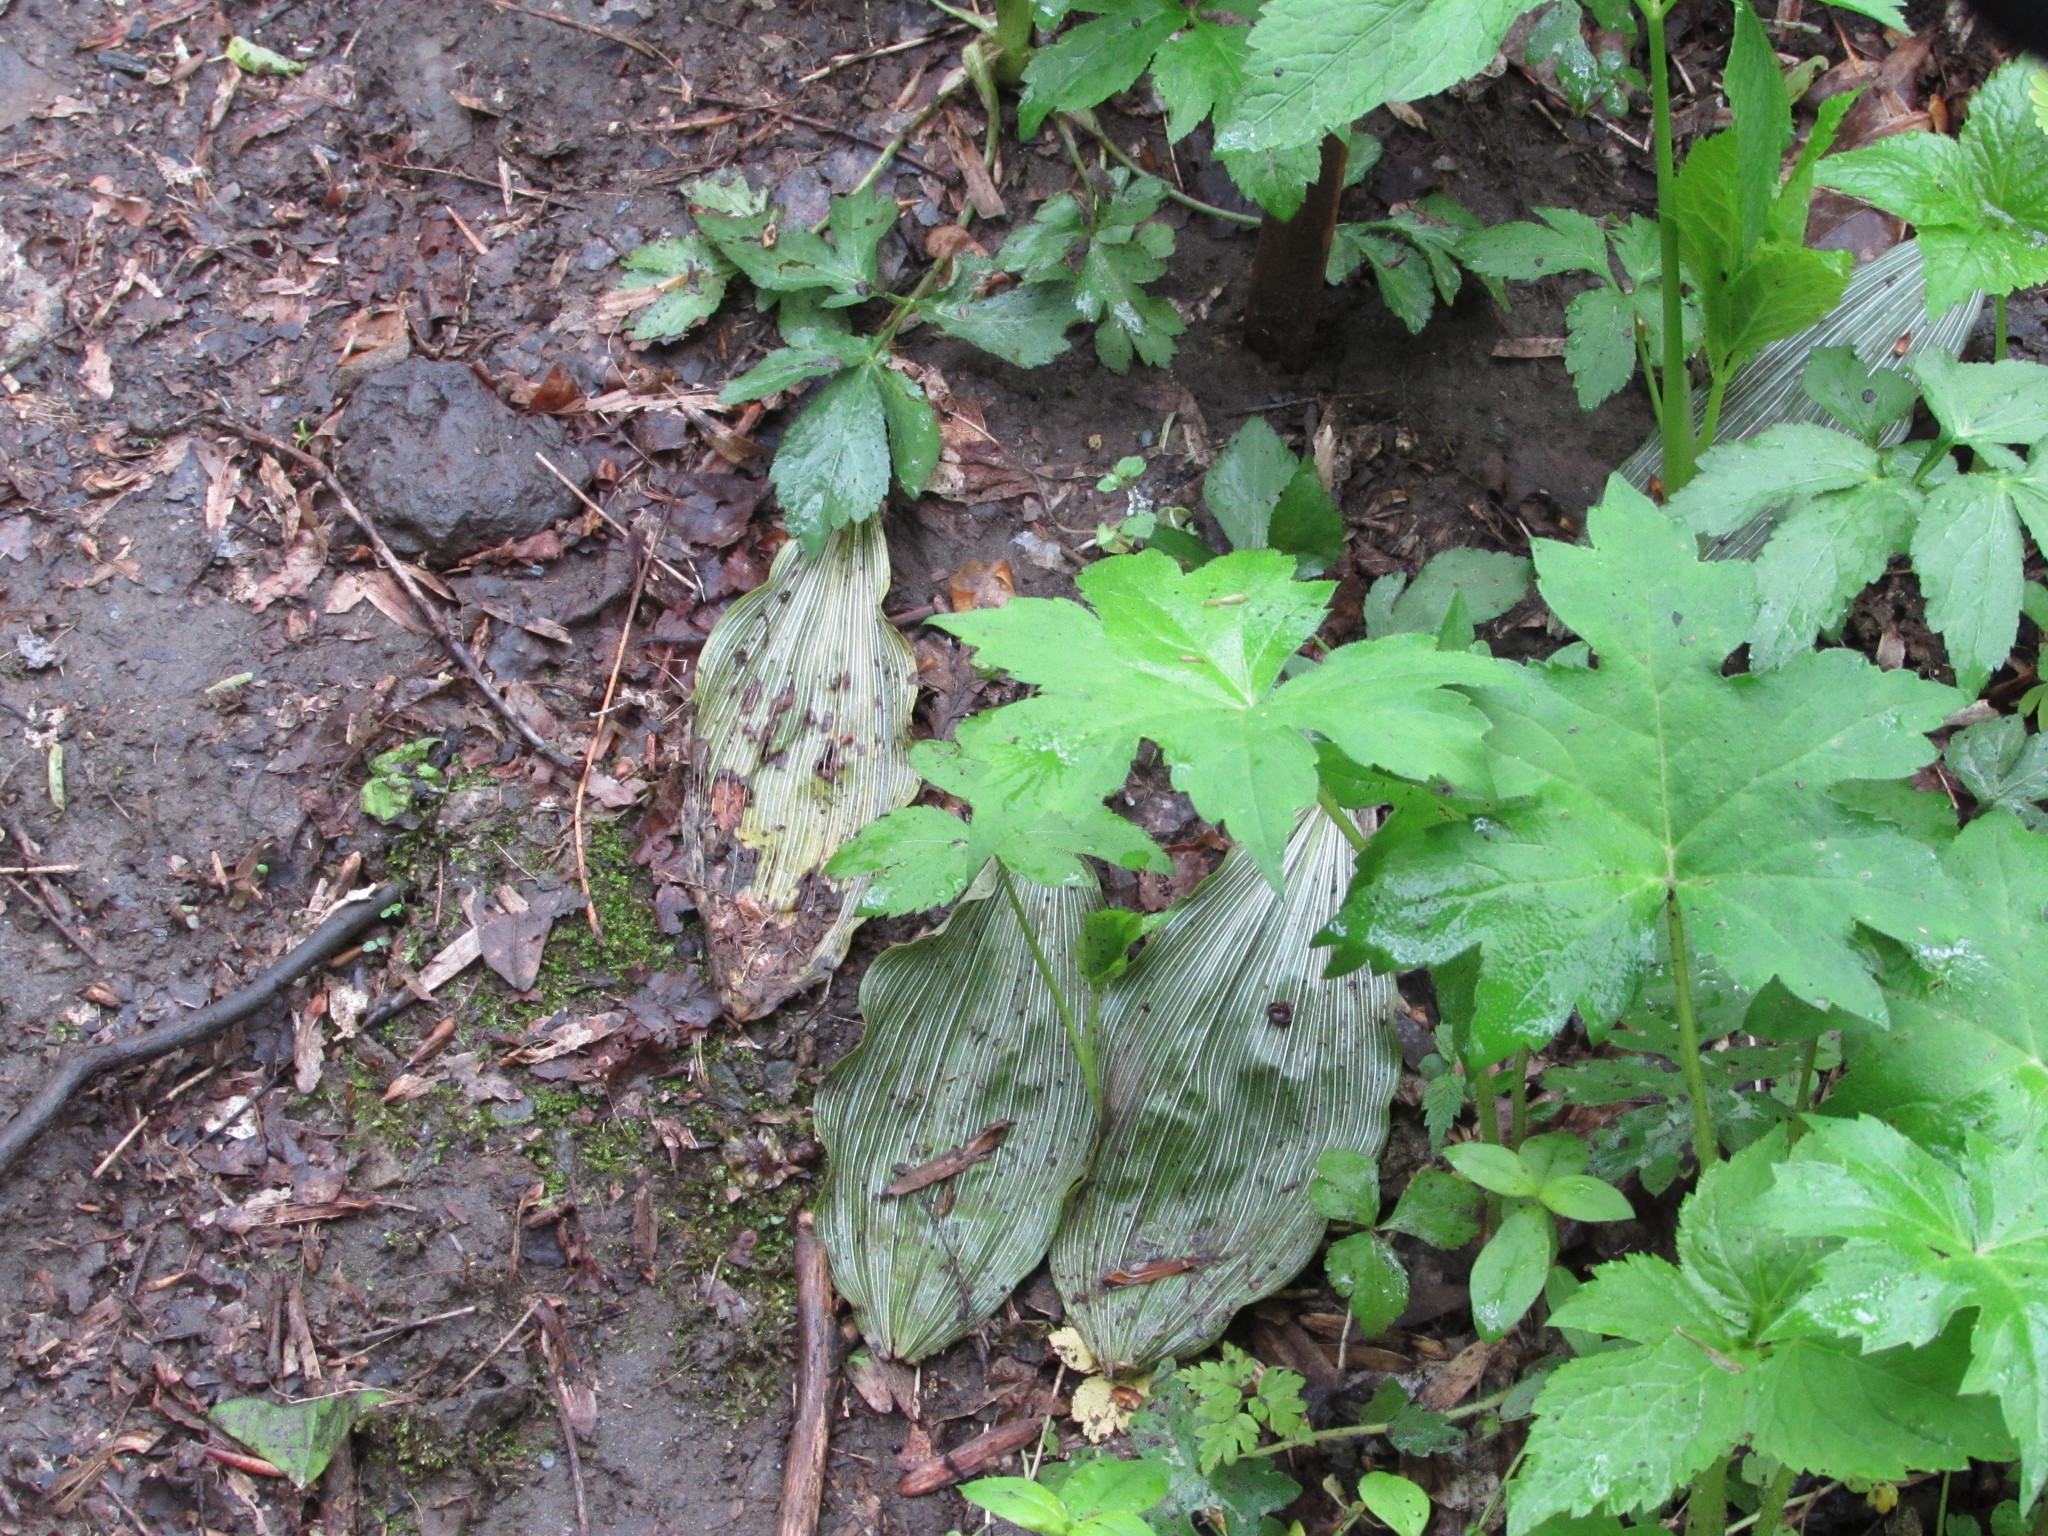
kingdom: Plantae
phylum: Tracheophyta
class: Liliopsida
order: Asparagales
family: Orchidaceae
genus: Aplectrum
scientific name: Aplectrum hyemale
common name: Adam-and-eve
